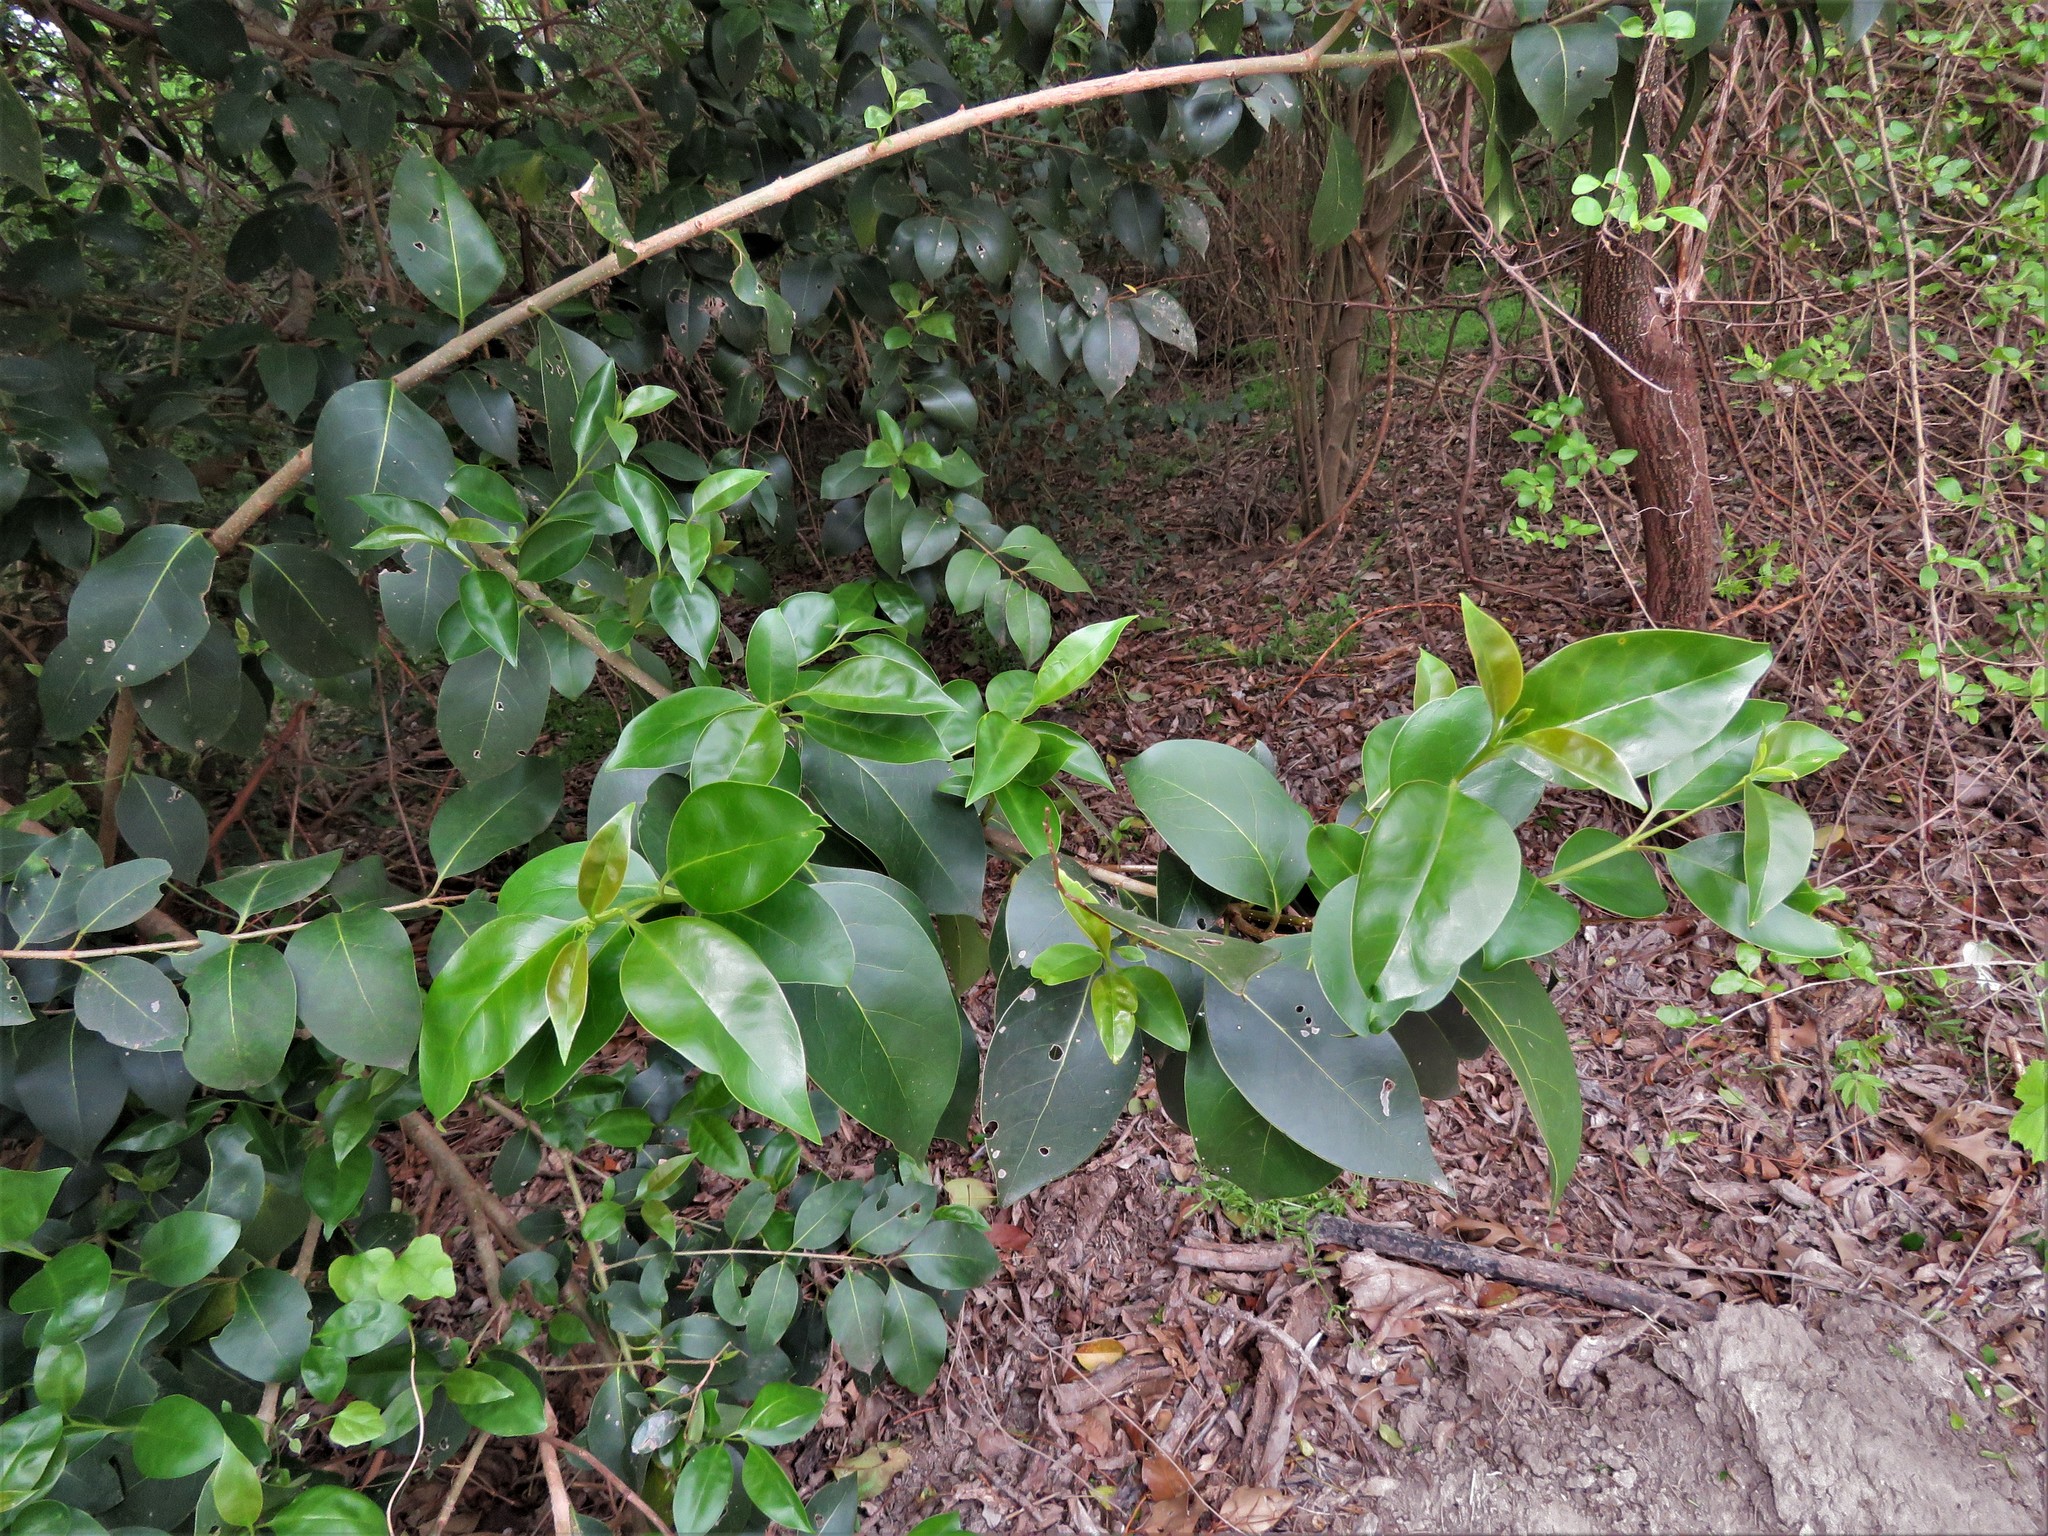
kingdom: Plantae
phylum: Tracheophyta
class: Magnoliopsida
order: Lamiales
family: Oleaceae
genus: Ligustrum
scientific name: Ligustrum lucidum
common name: Glossy privet
